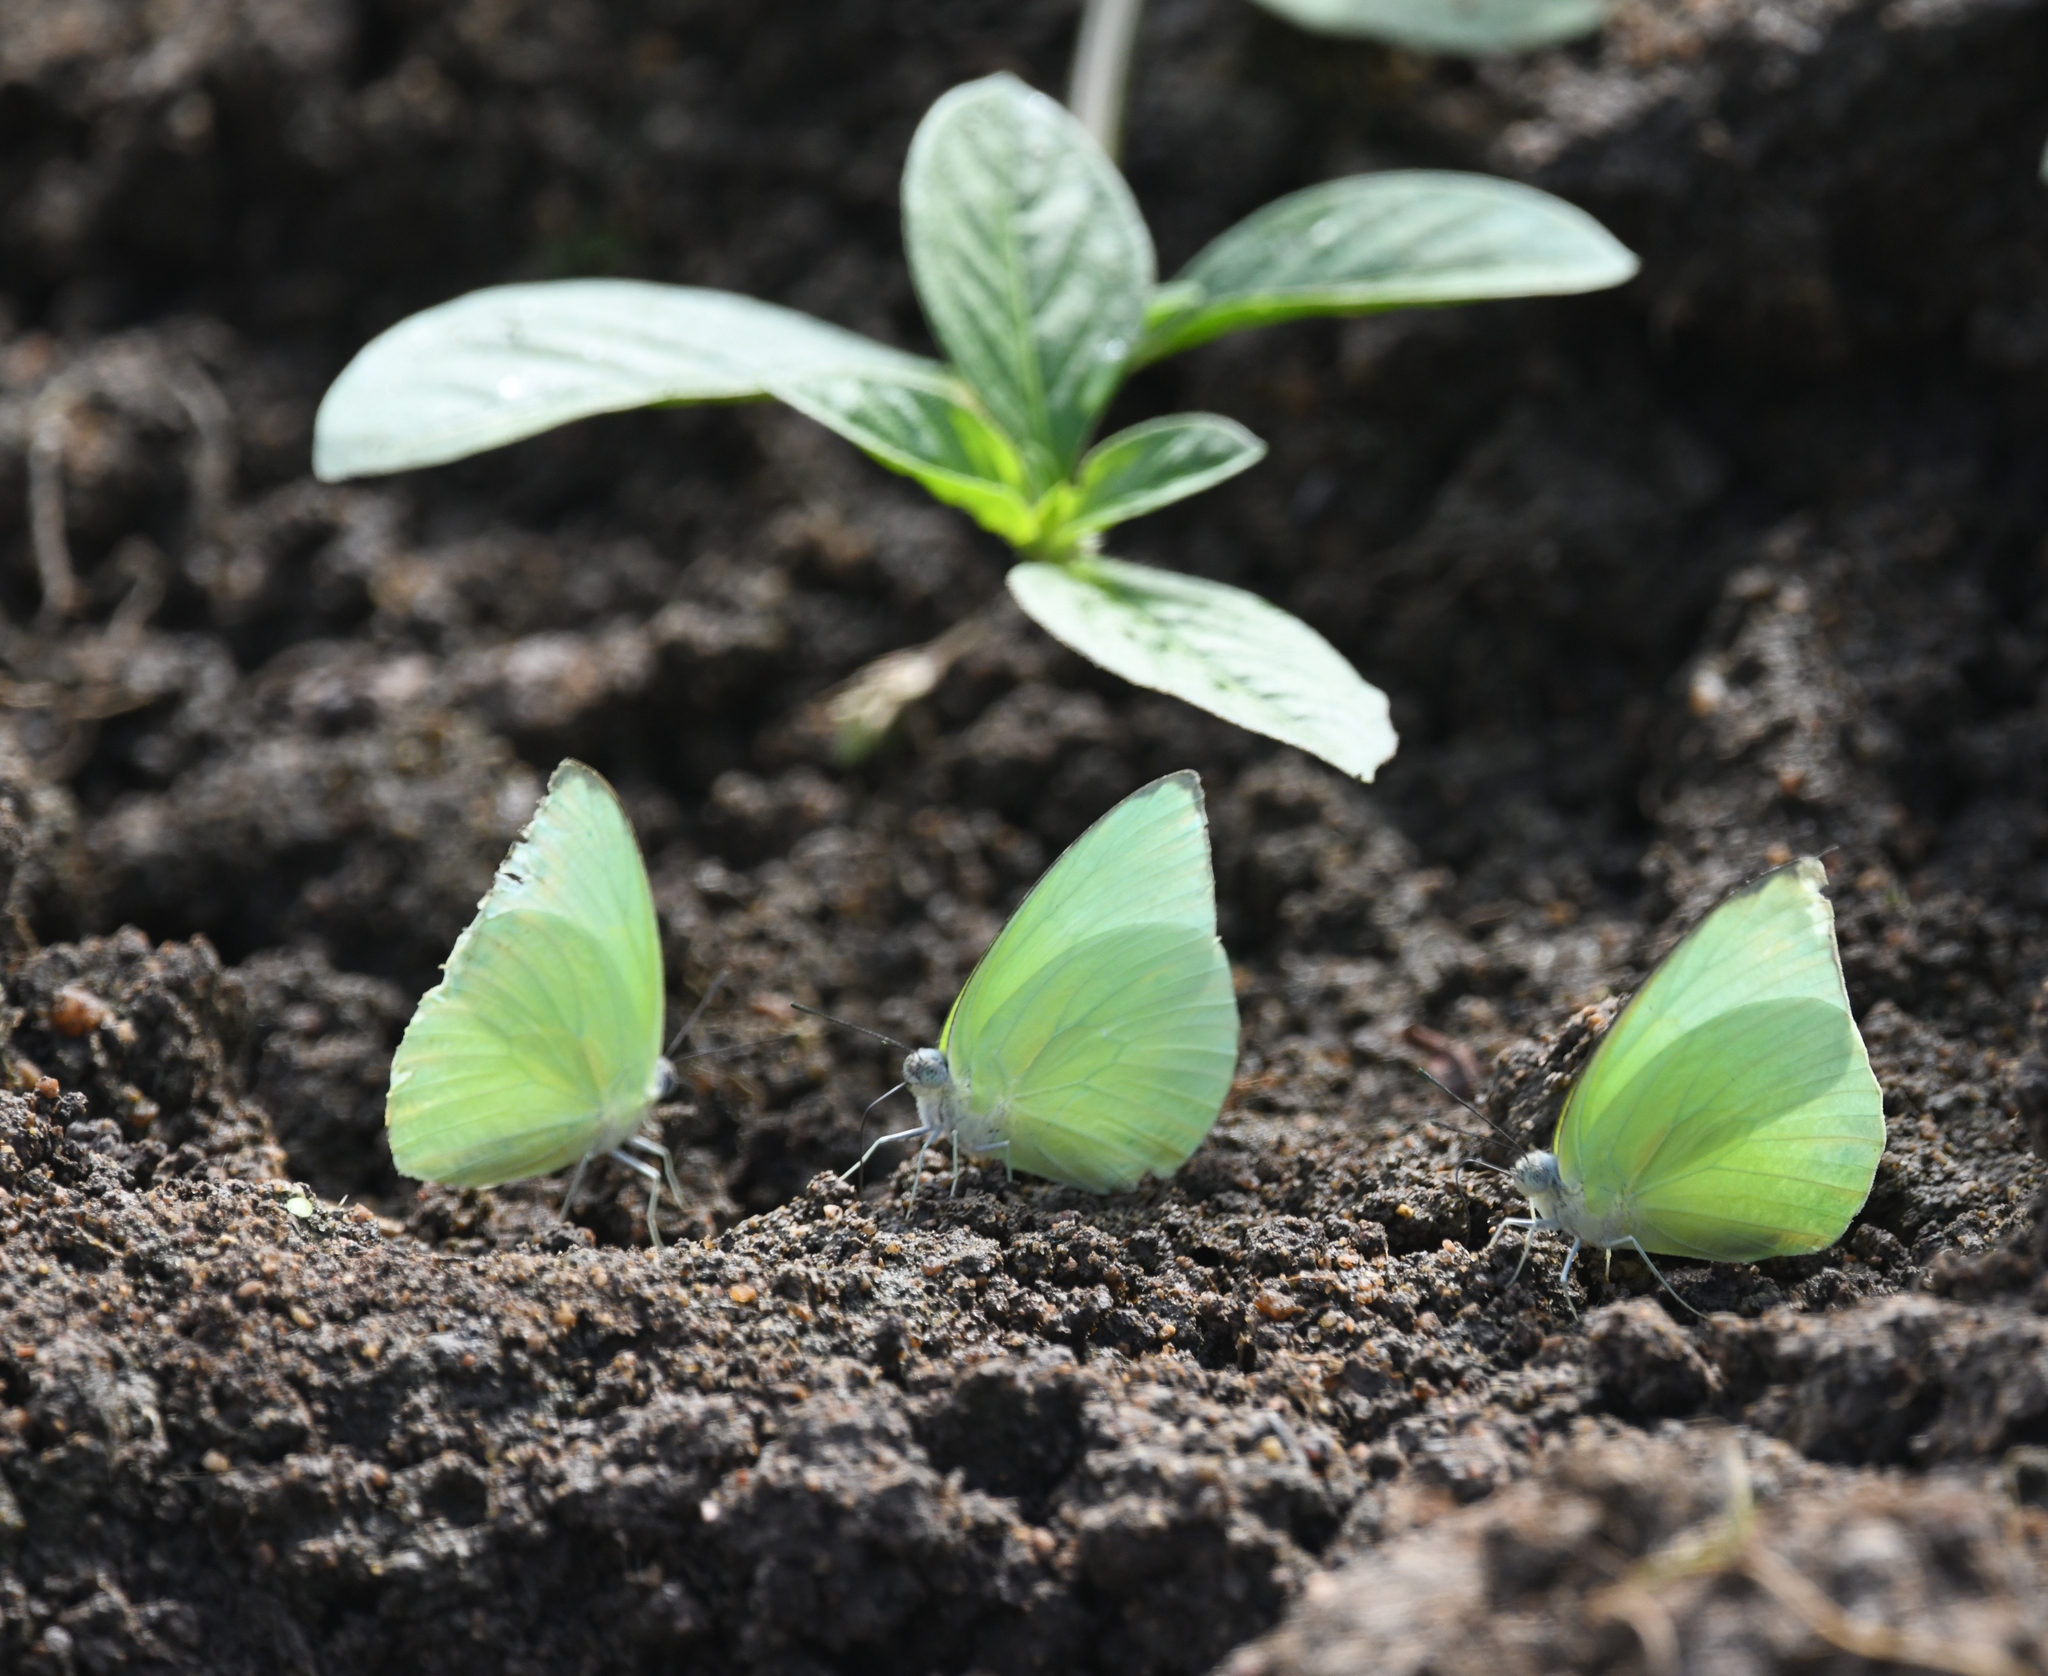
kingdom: Animalia
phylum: Arthropoda
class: Insecta
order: Lepidoptera
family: Pieridae
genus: Catopsilia
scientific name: Catopsilia pomona
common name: Common emigrant
